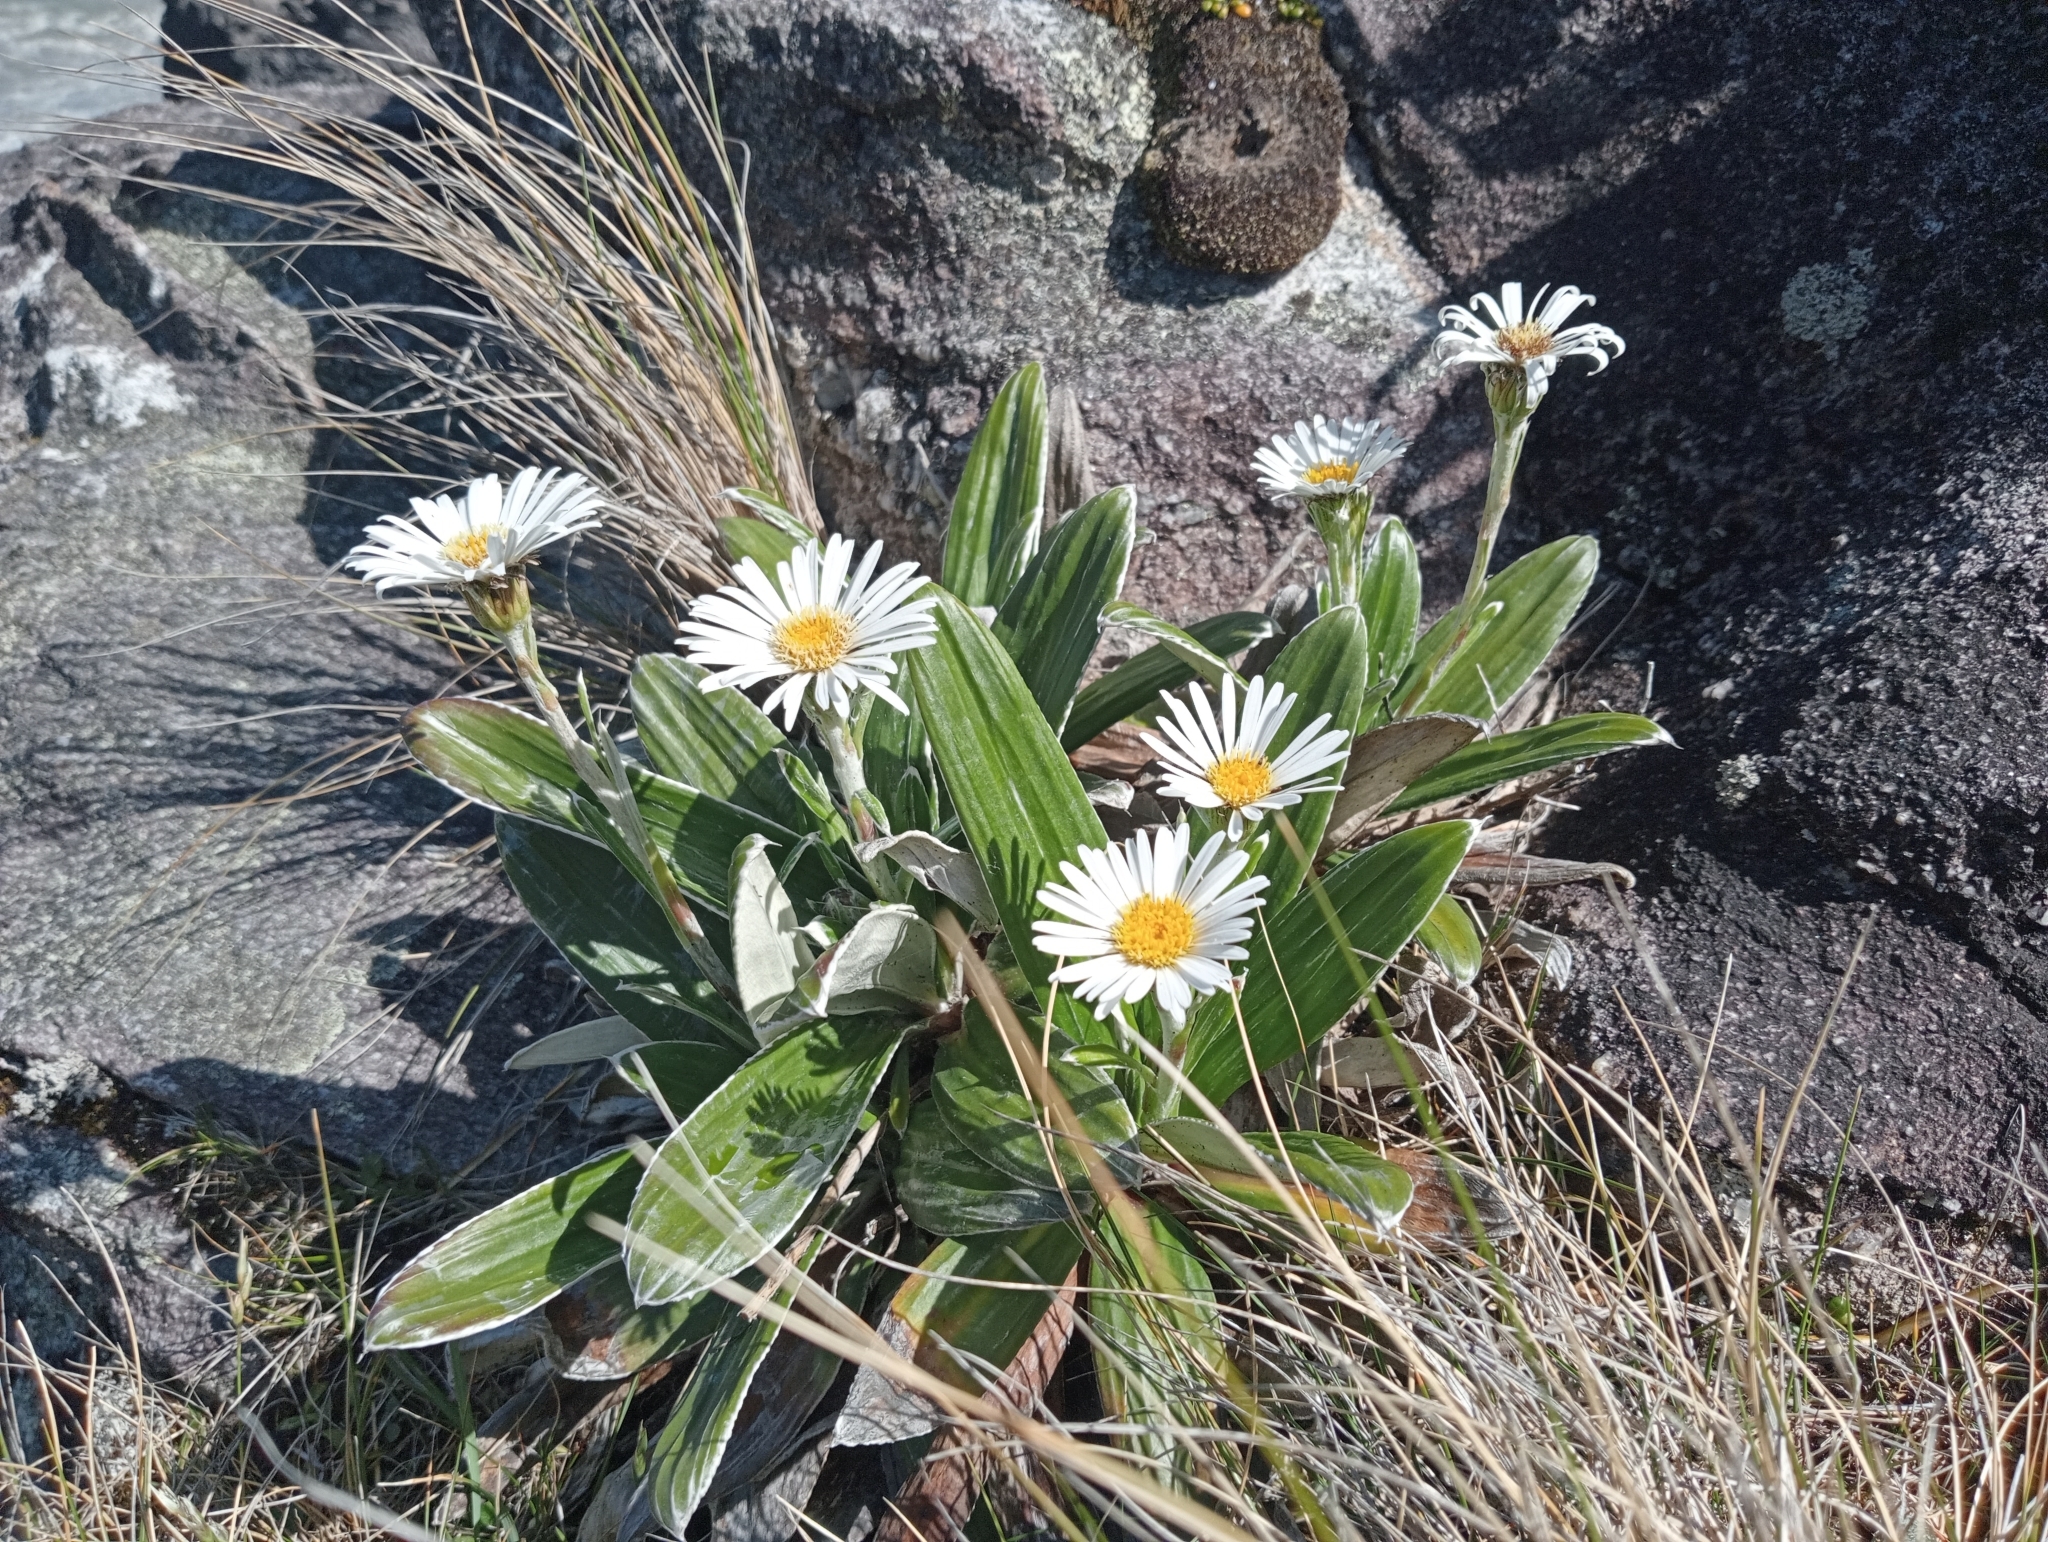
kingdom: Plantae
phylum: Tracheophyta
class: Magnoliopsida
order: Asterales
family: Asteraceae
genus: Celmisia
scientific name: Celmisia semicordata
